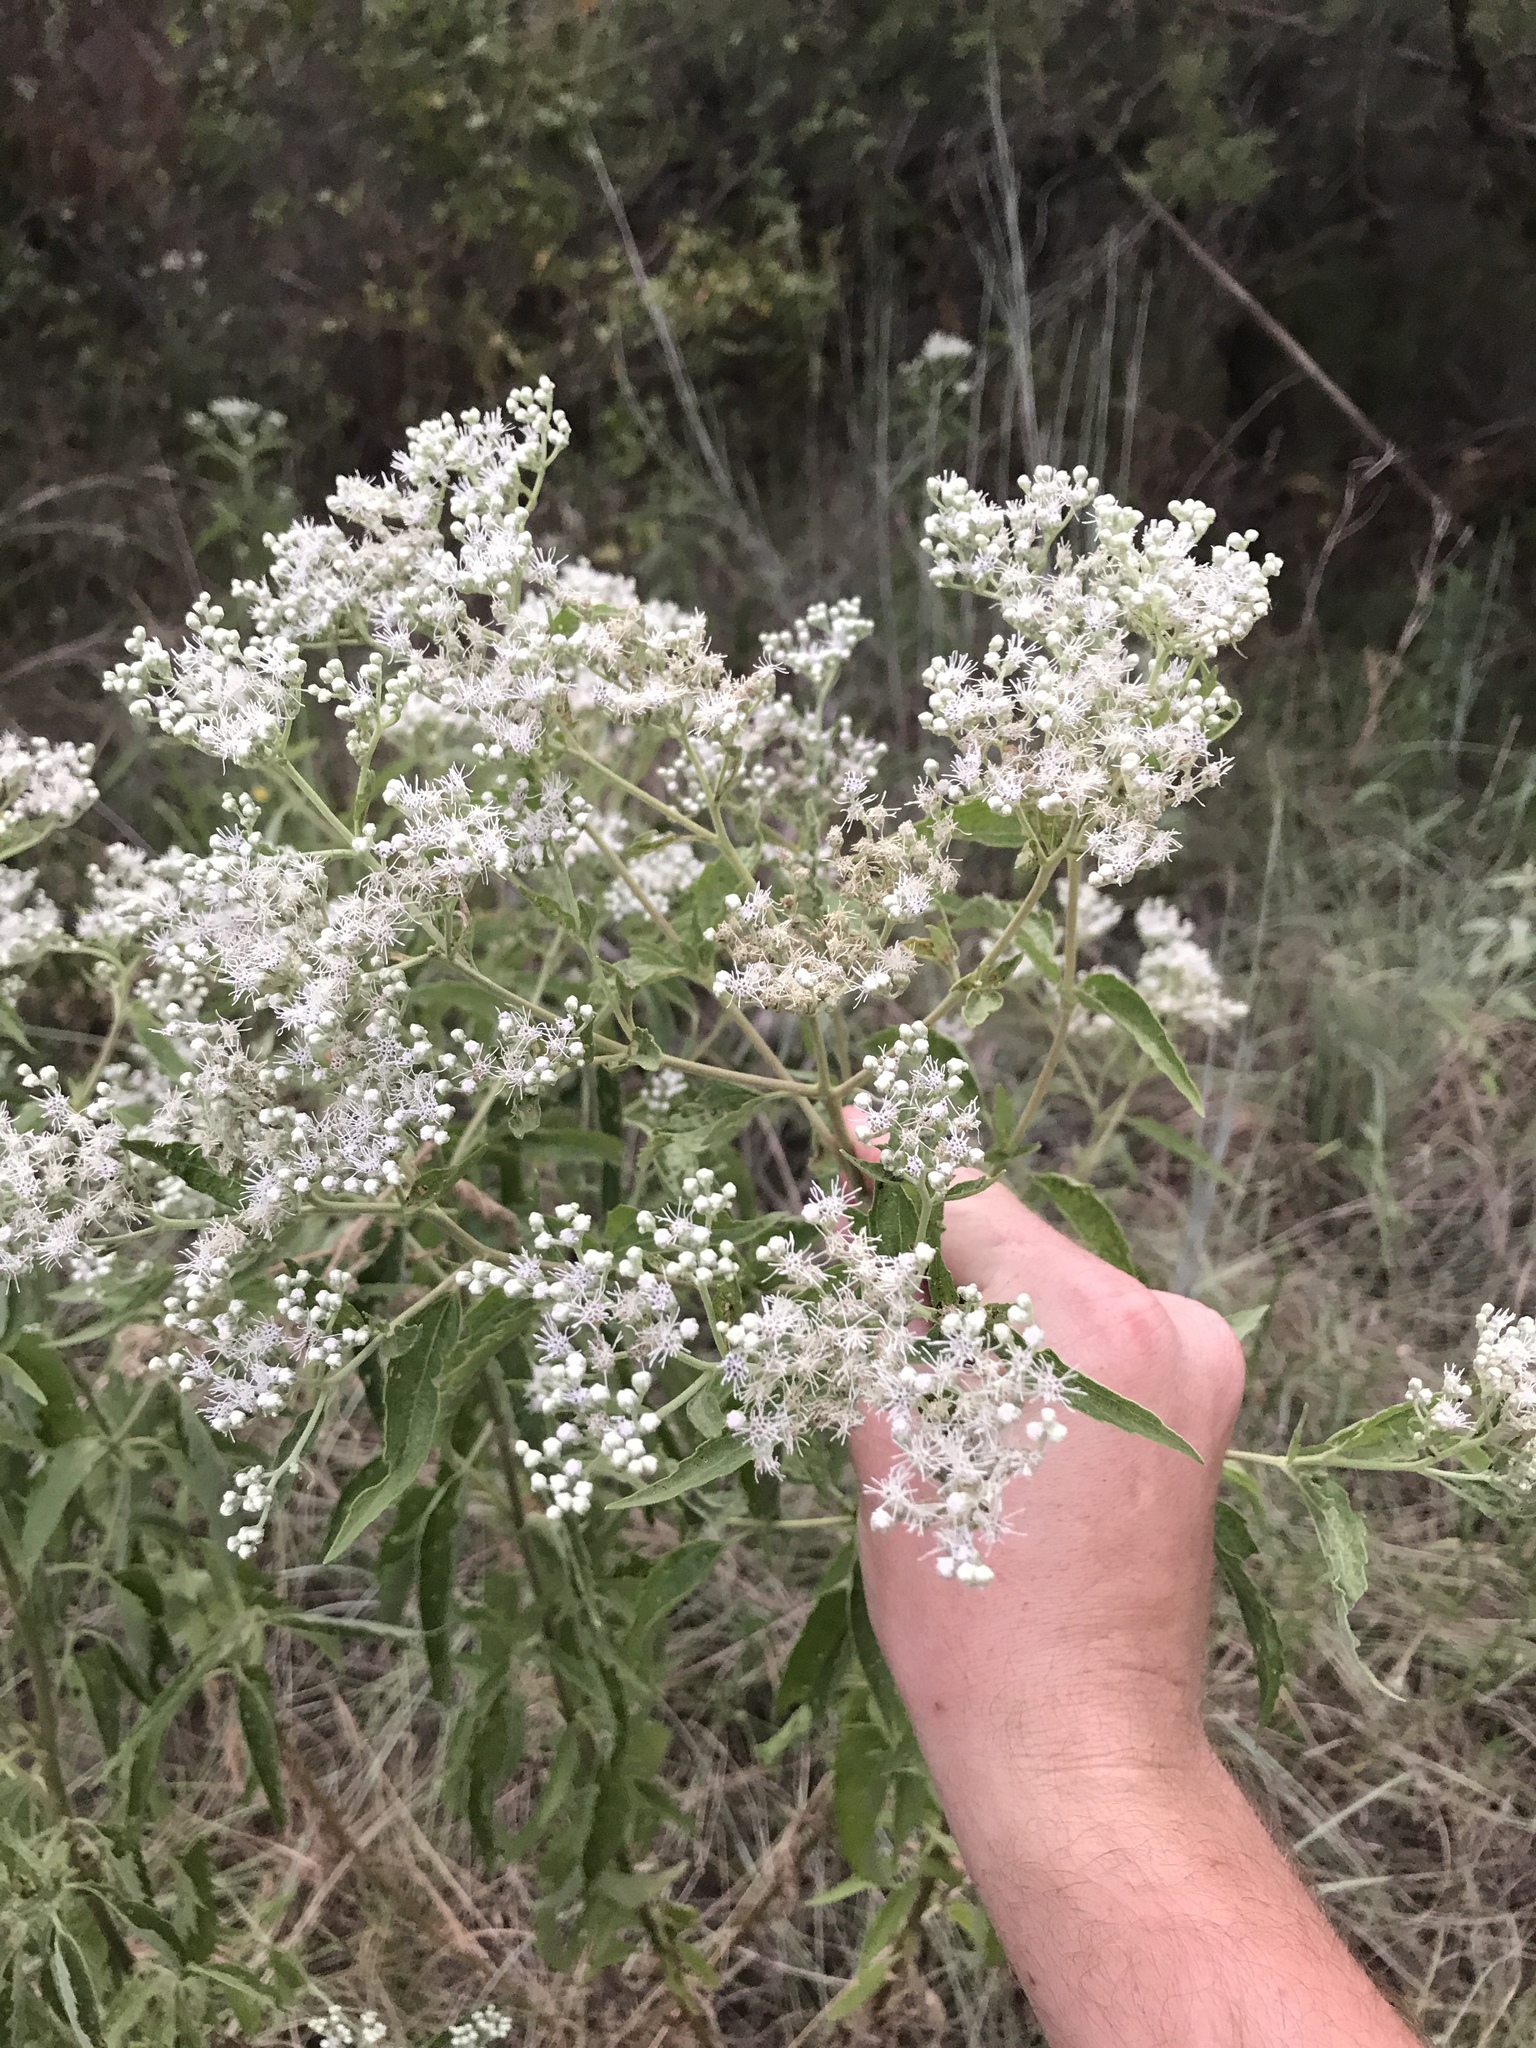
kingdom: Plantae
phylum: Tracheophyta
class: Magnoliopsida
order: Asterales
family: Asteraceae
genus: Eupatorium
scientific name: Eupatorium serotinum
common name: Late boneset
